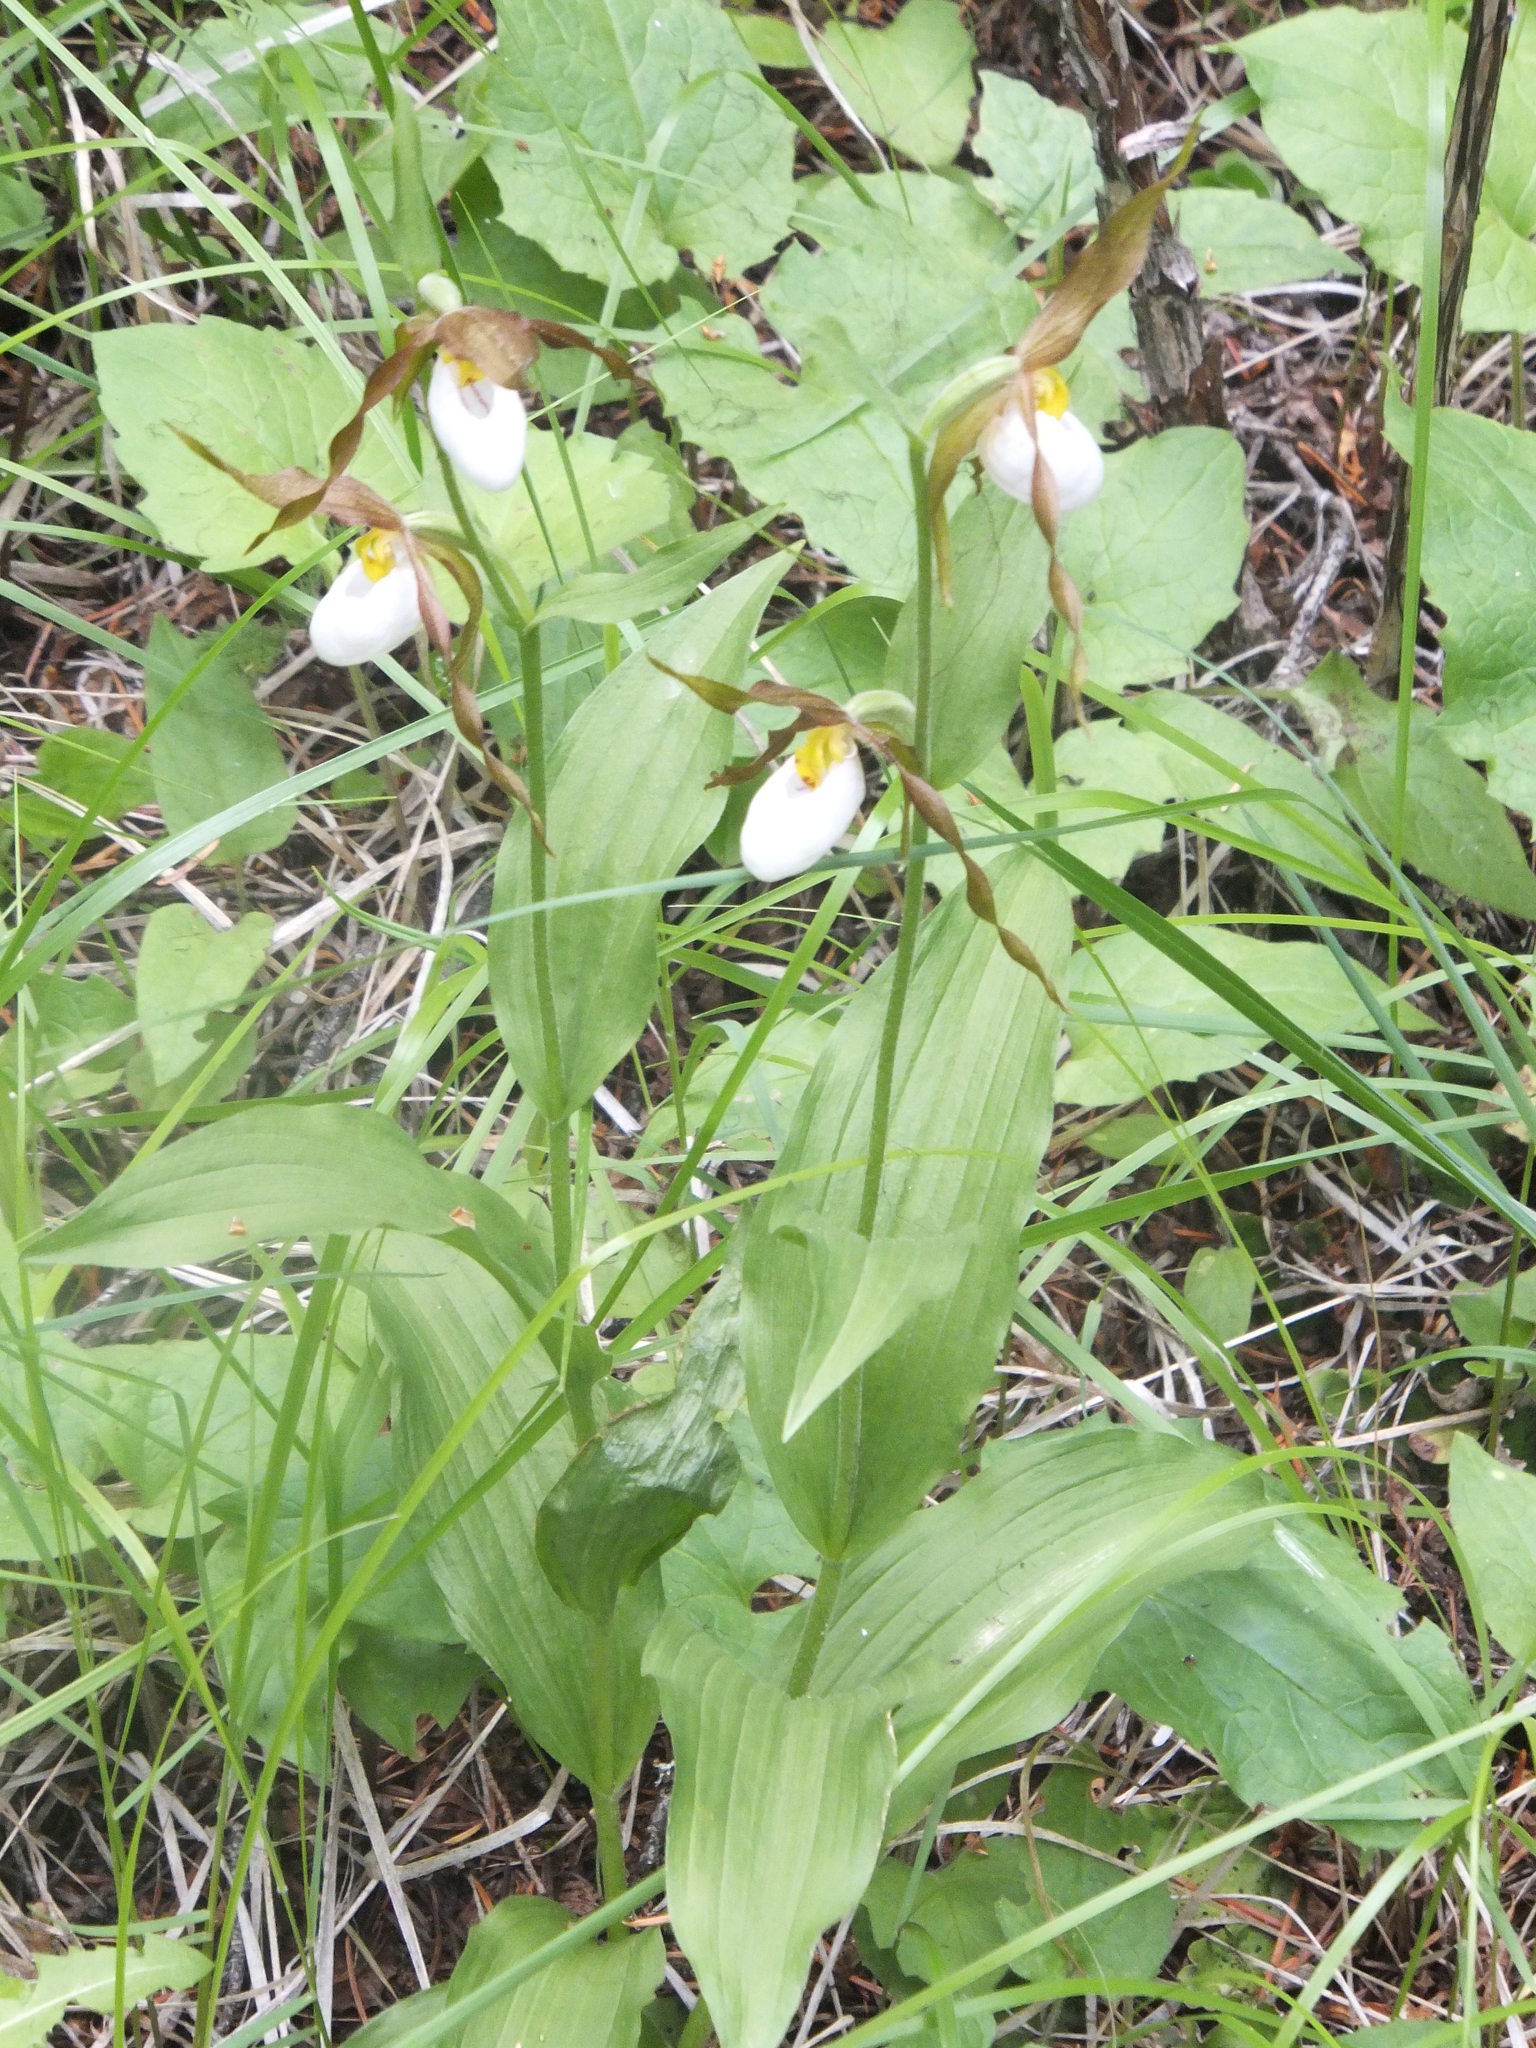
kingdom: Plantae
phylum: Tracheophyta
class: Liliopsida
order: Asparagales
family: Orchidaceae
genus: Cypripedium
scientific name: Cypripedium montanum
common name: Mountain lady's-slipper
